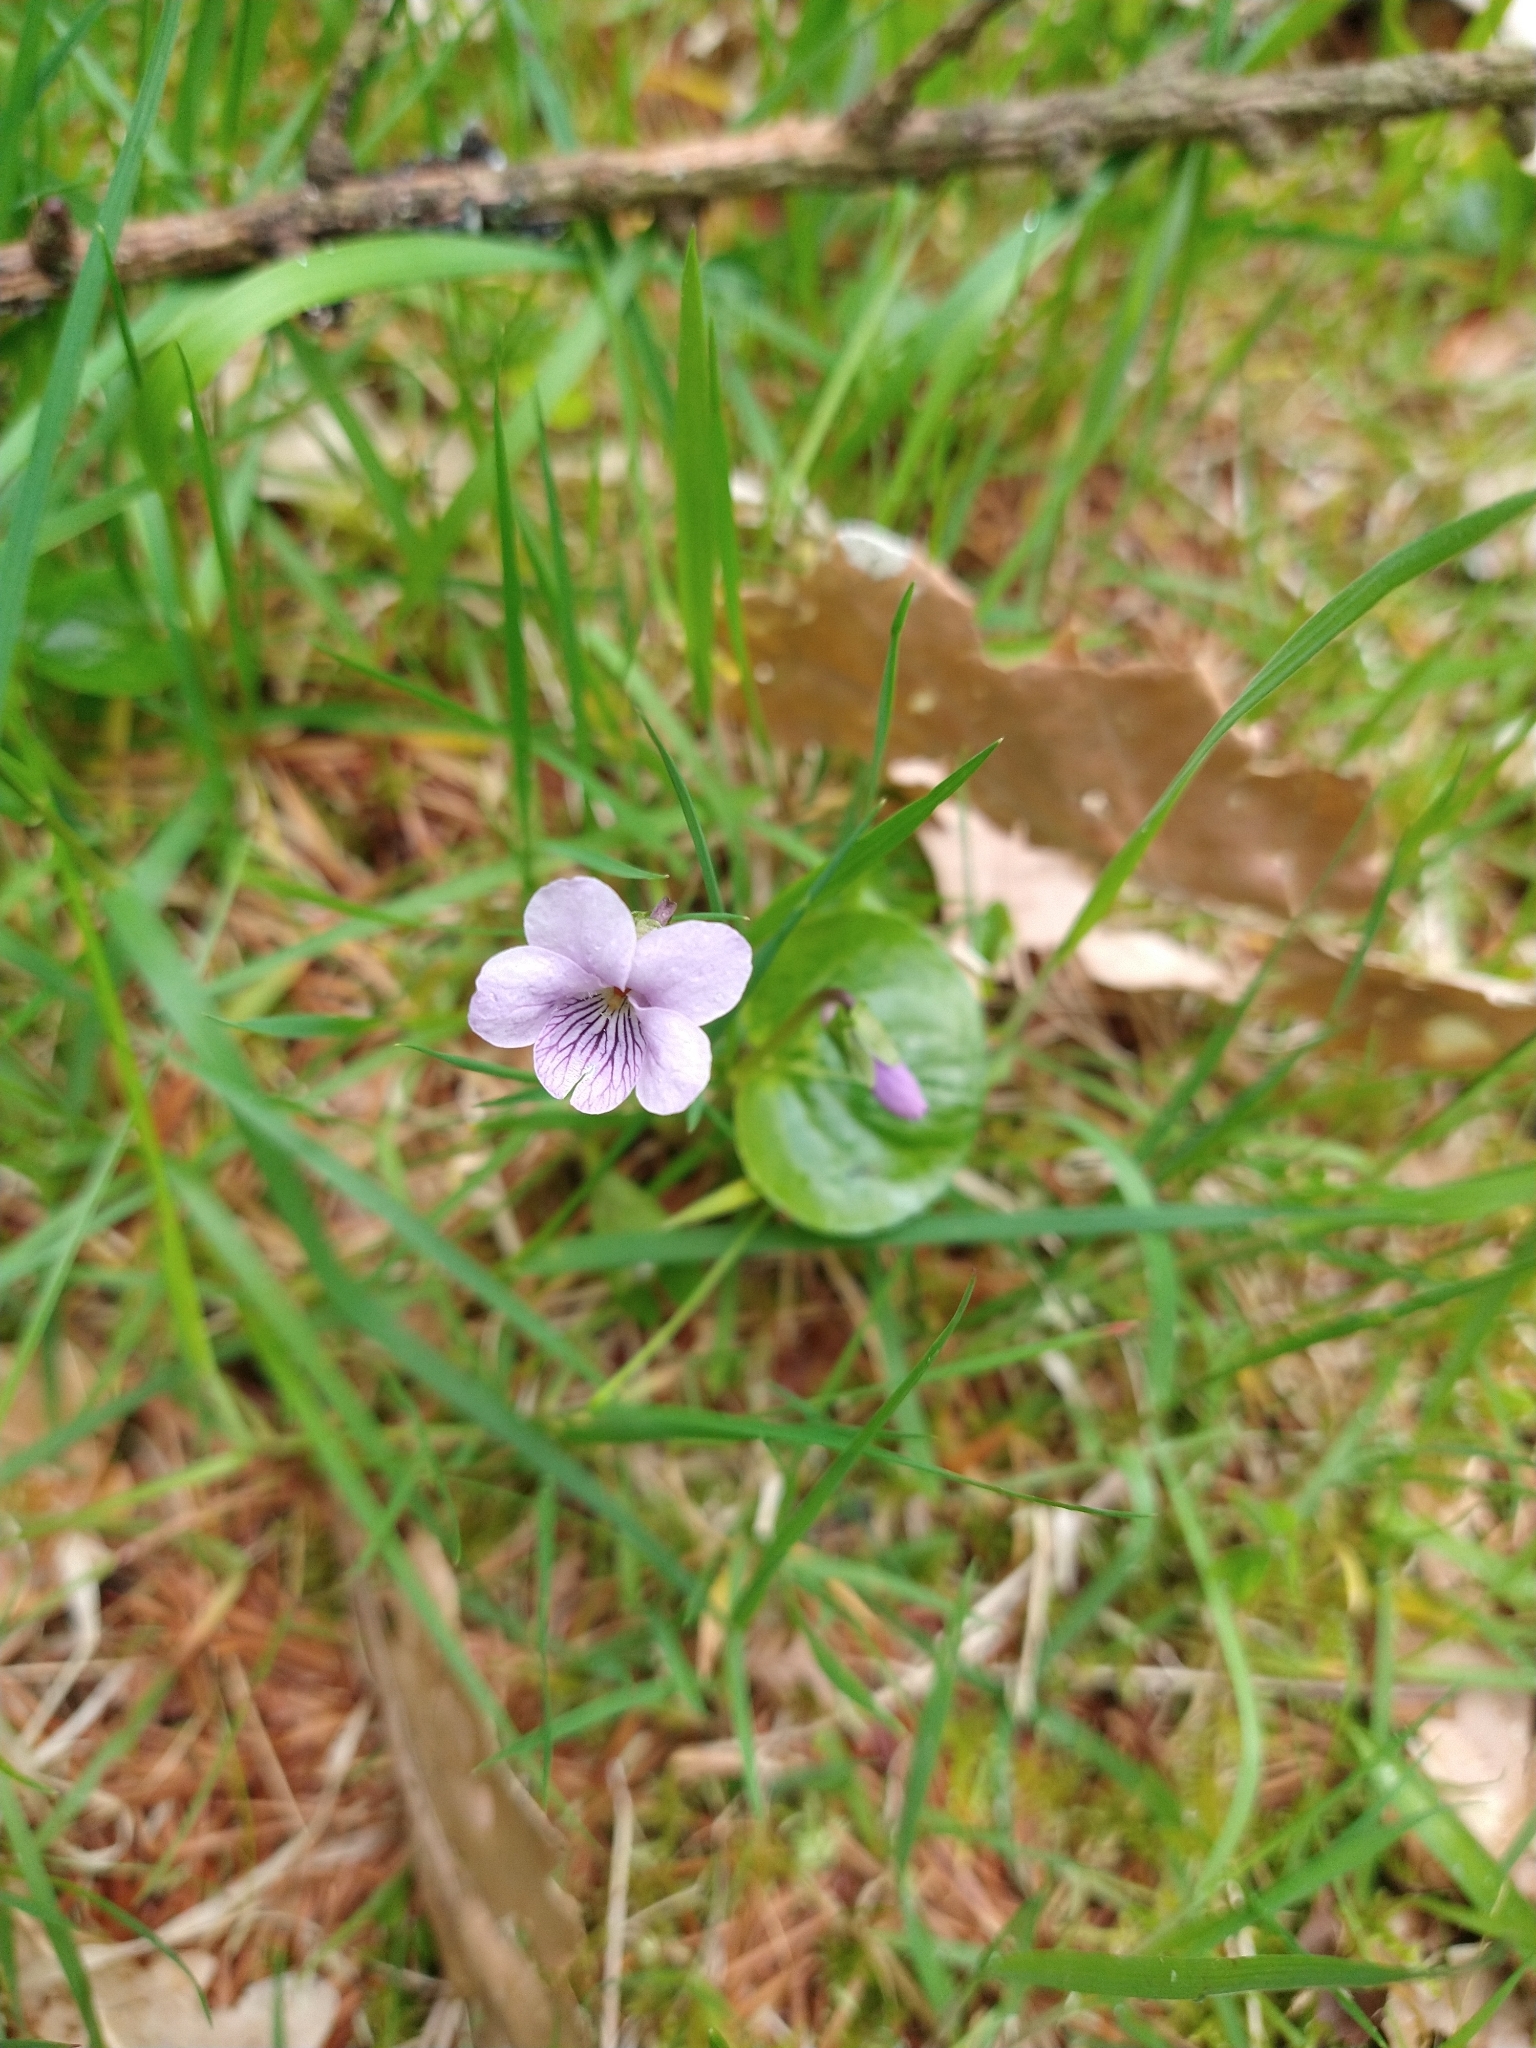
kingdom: Plantae
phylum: Tracheophyta
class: Magnoliopsida
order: Malpighiales
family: Violaceae
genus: Viola
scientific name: Viola palustris
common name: Marsh violet
